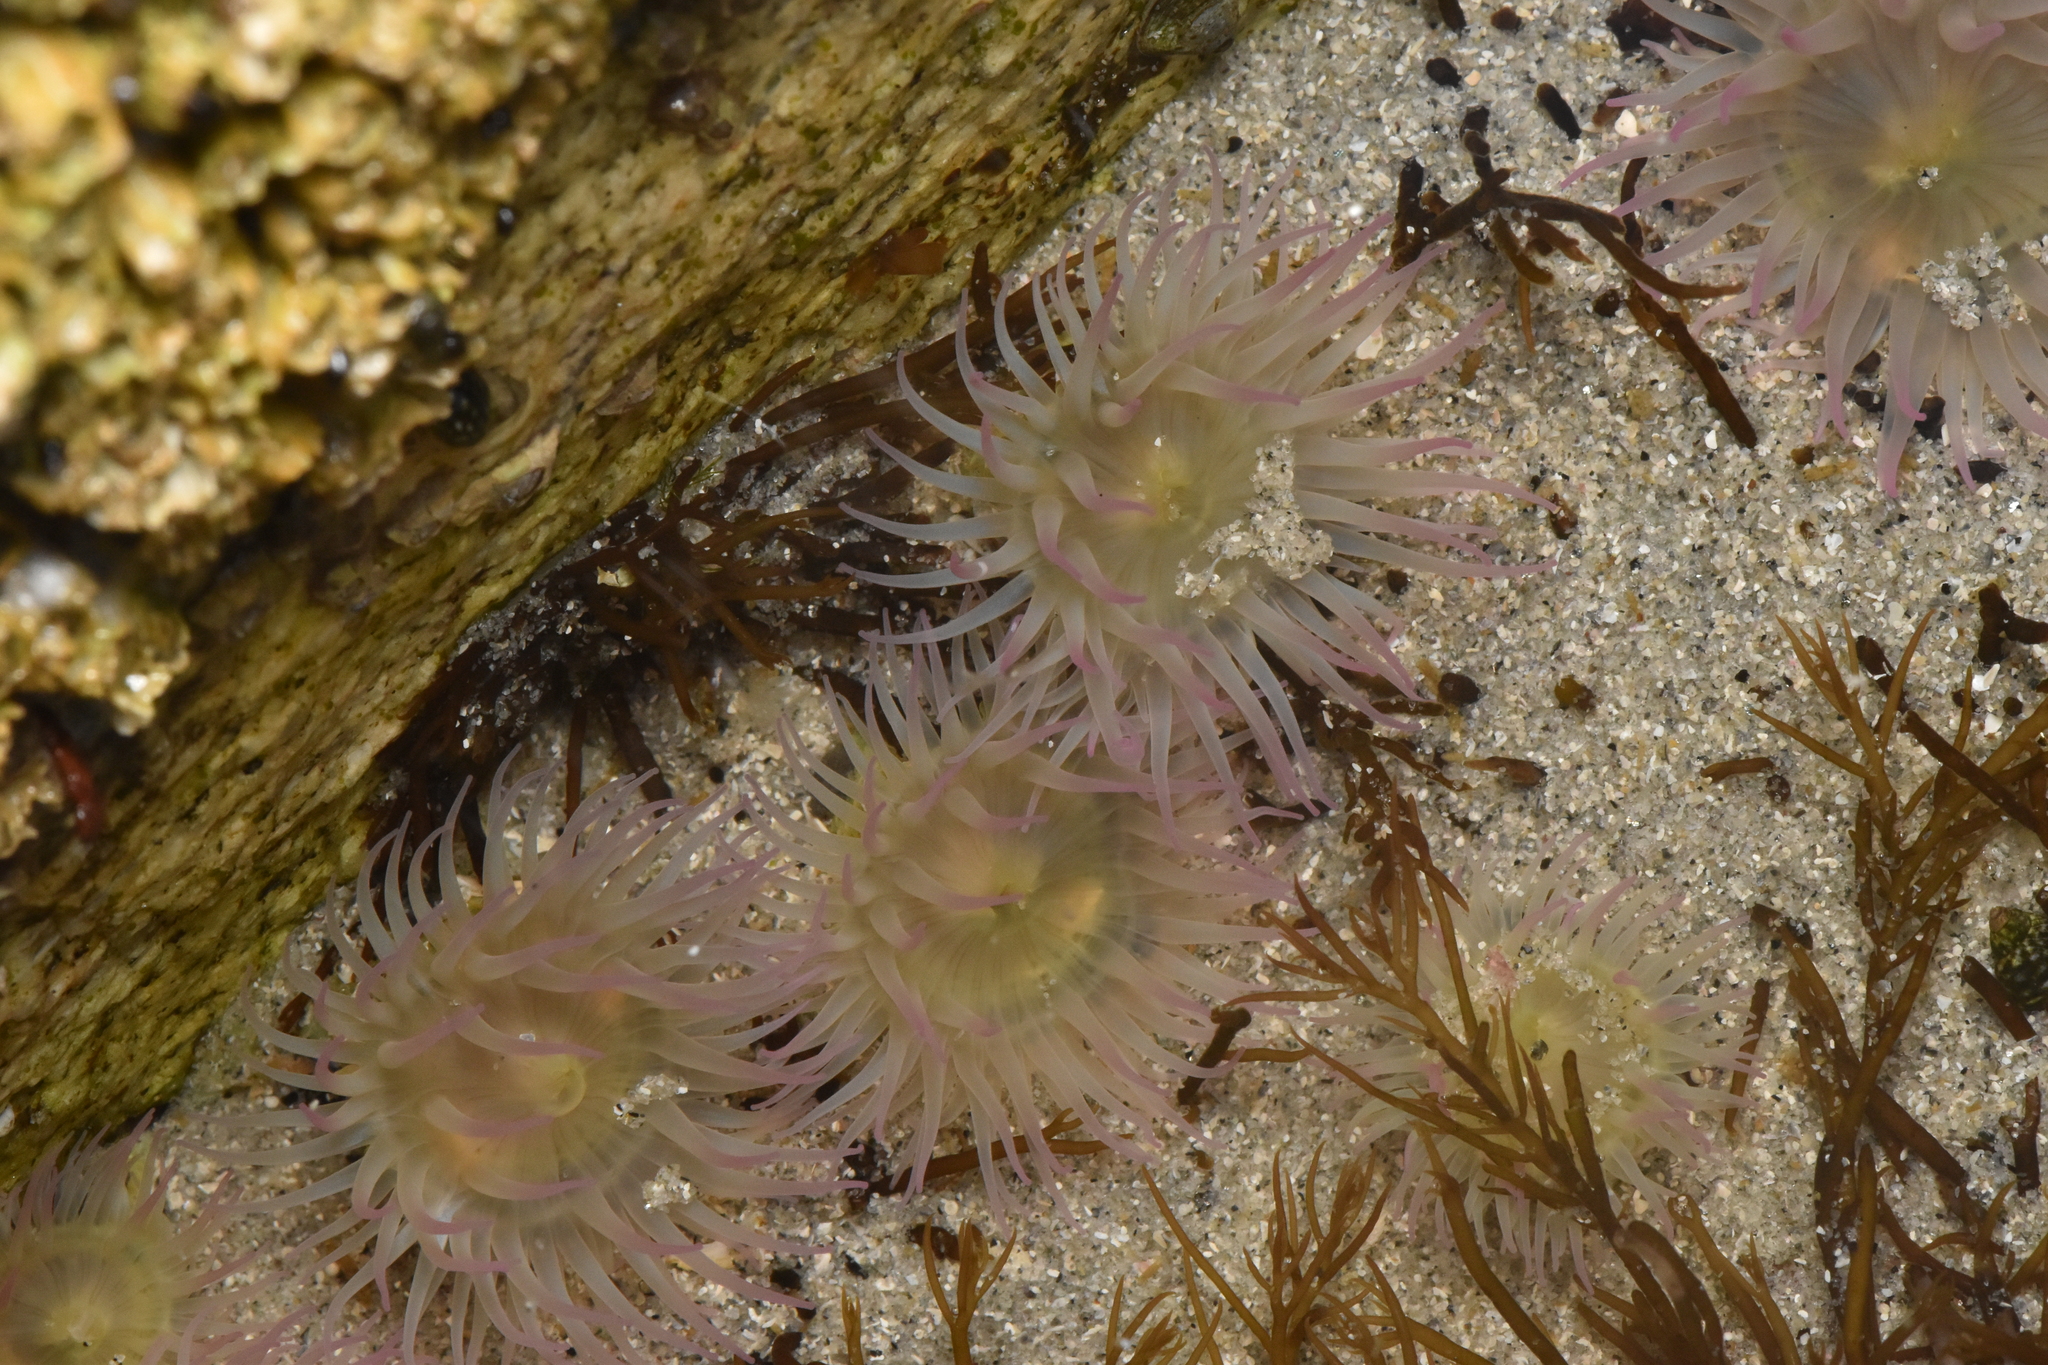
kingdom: Animalia
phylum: Cnidaria
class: Anthozoa
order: Actiniaria
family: Actiniidae
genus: Anthopleura
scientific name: Anthopleura elegantissima
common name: Clonal anemone
